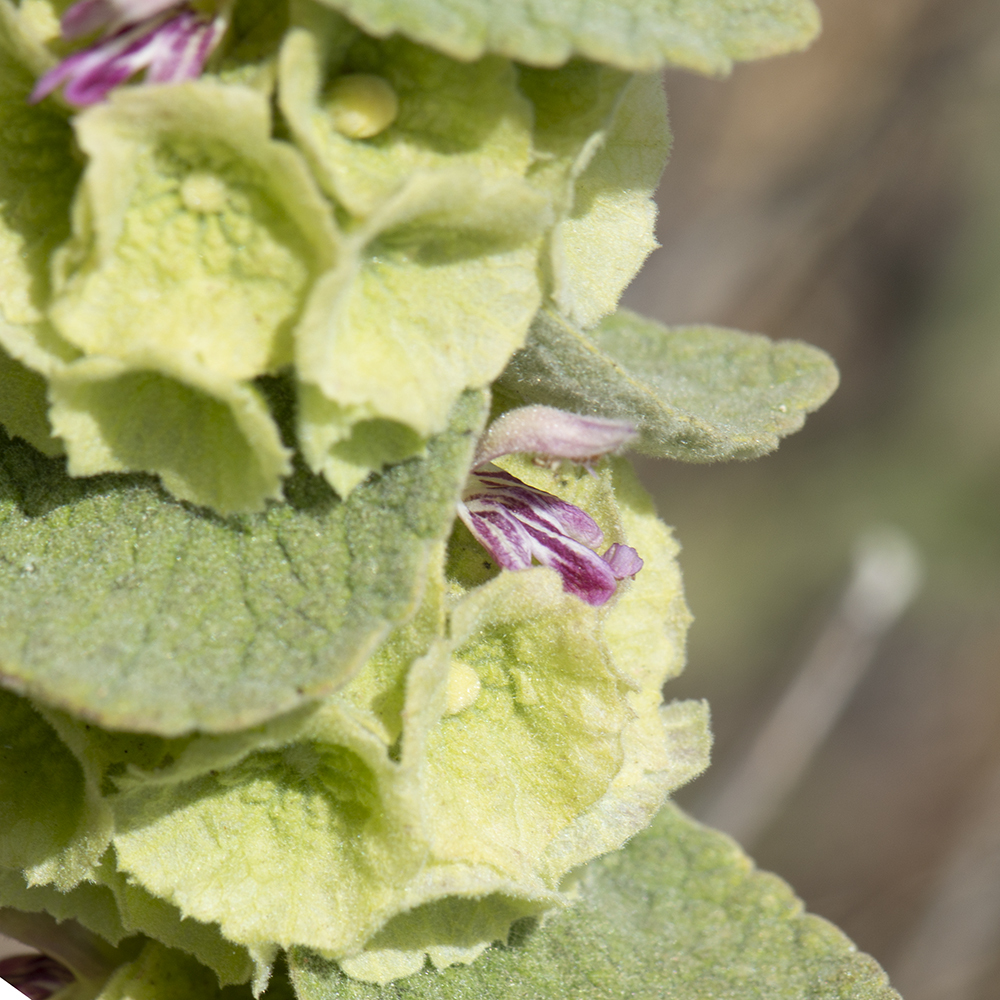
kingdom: Plantae
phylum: Tracheophyta
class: Magnoliopsida
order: Lamiales
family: Lamiaceae
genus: Pseudodictamnus
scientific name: Pseudodictamnus acetabulosus
